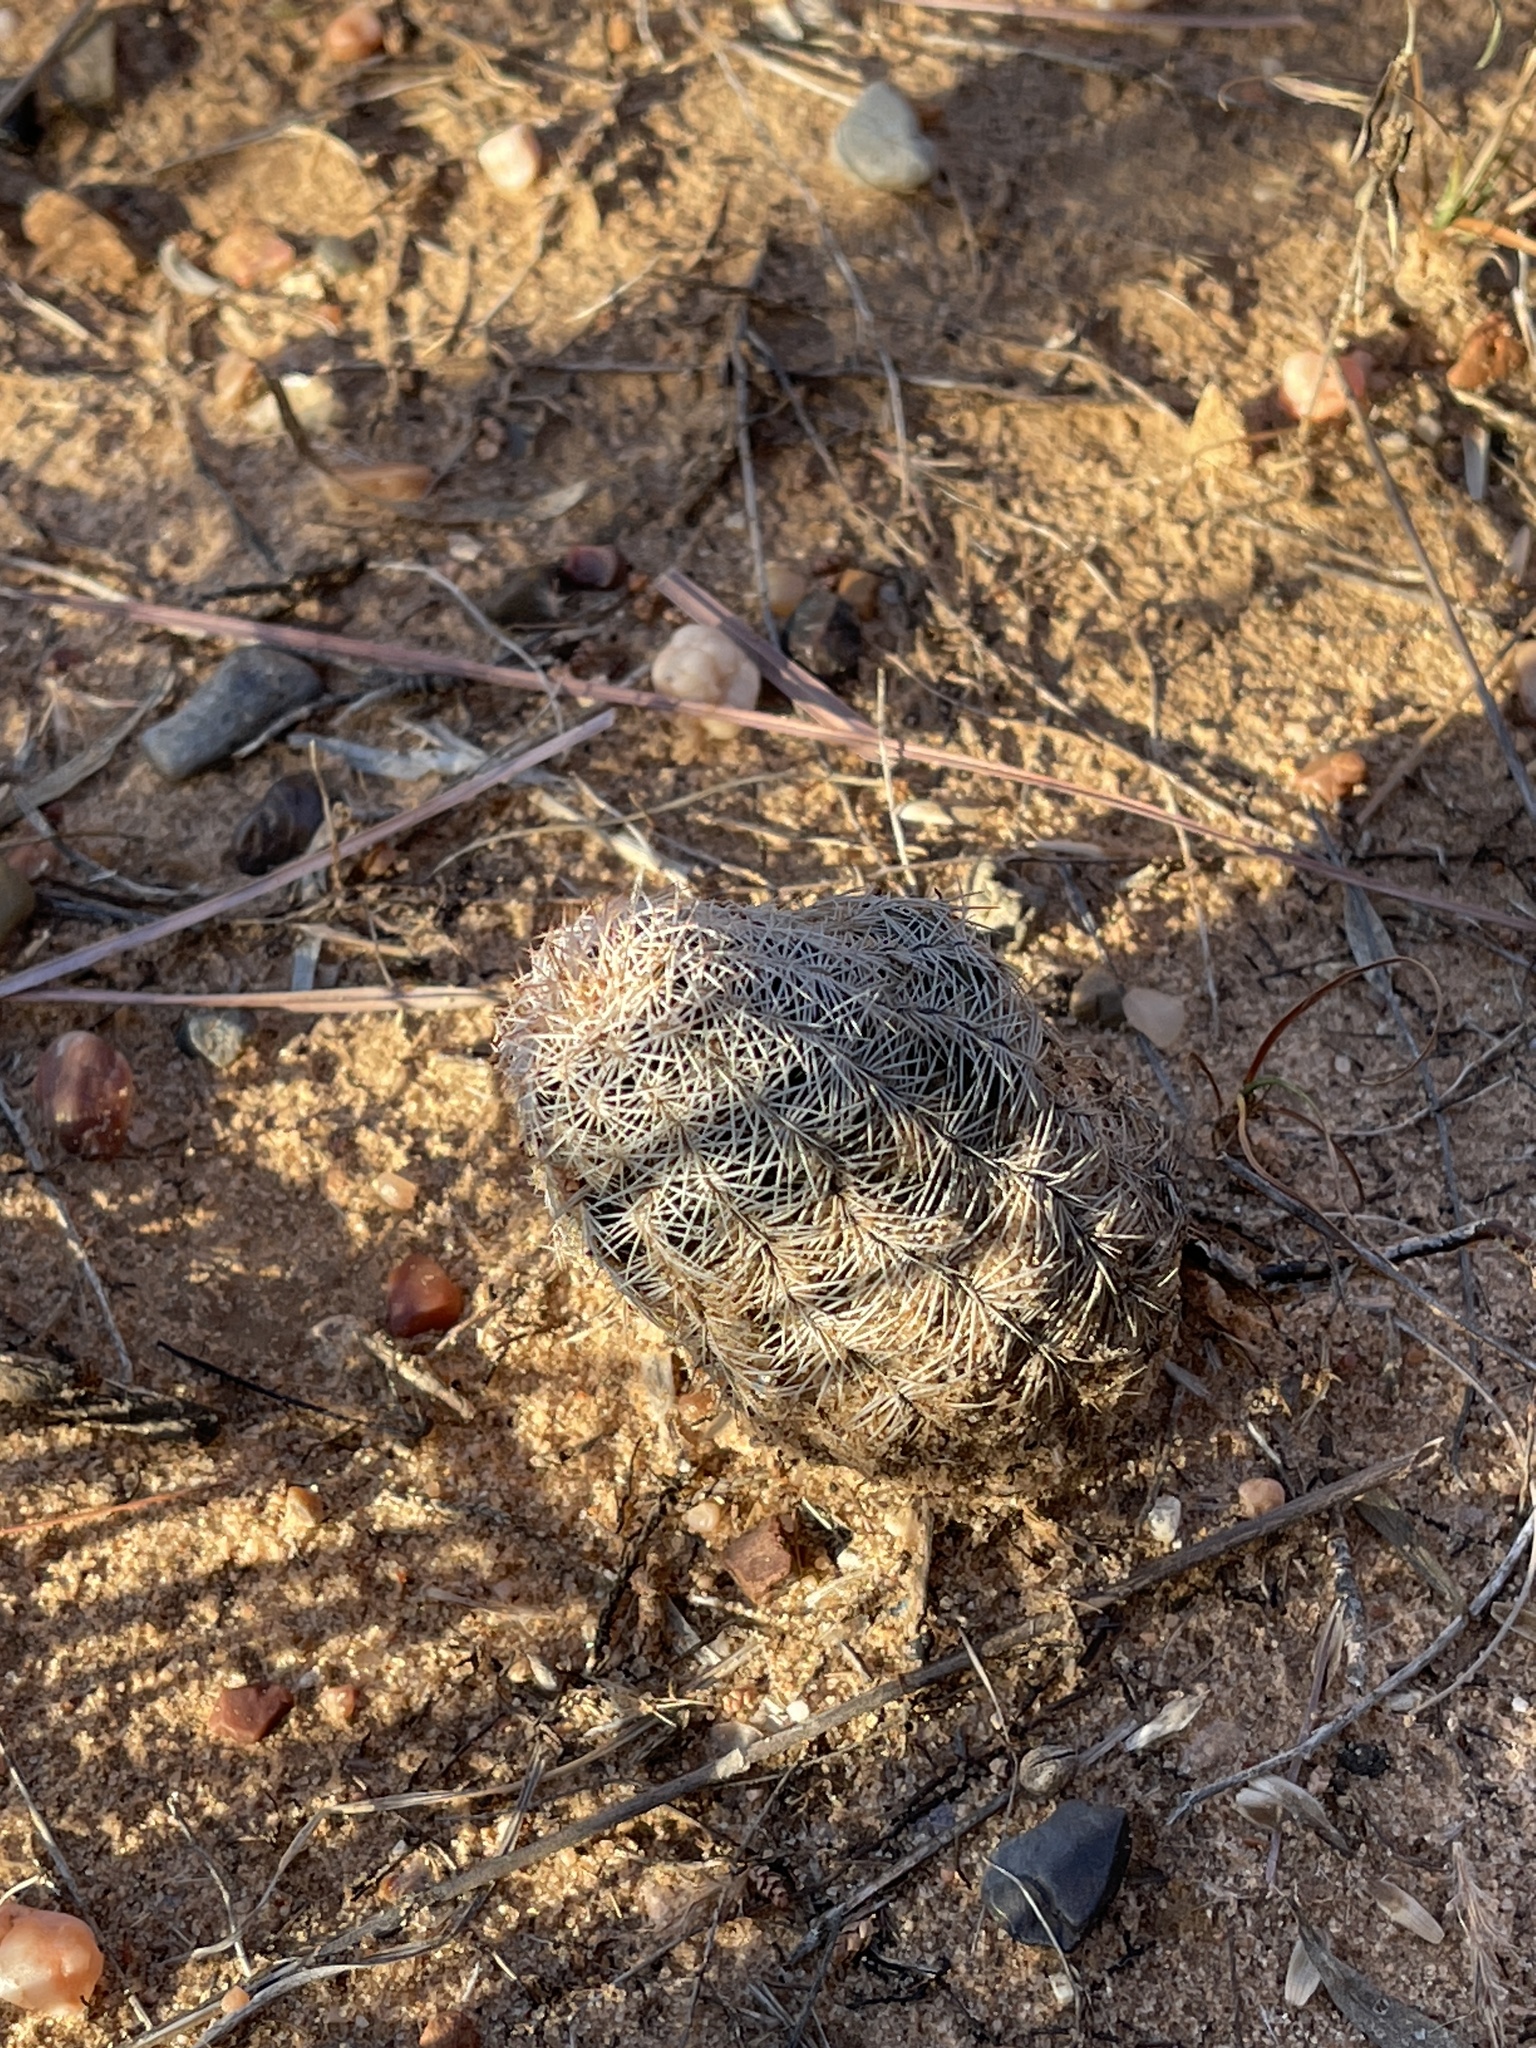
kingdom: Plantae
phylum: Tracheophyta
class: Magnoliopsida
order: Caryophyllales
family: Cactaceae
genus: Echinocereus
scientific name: Echinocereus reichenbachii
